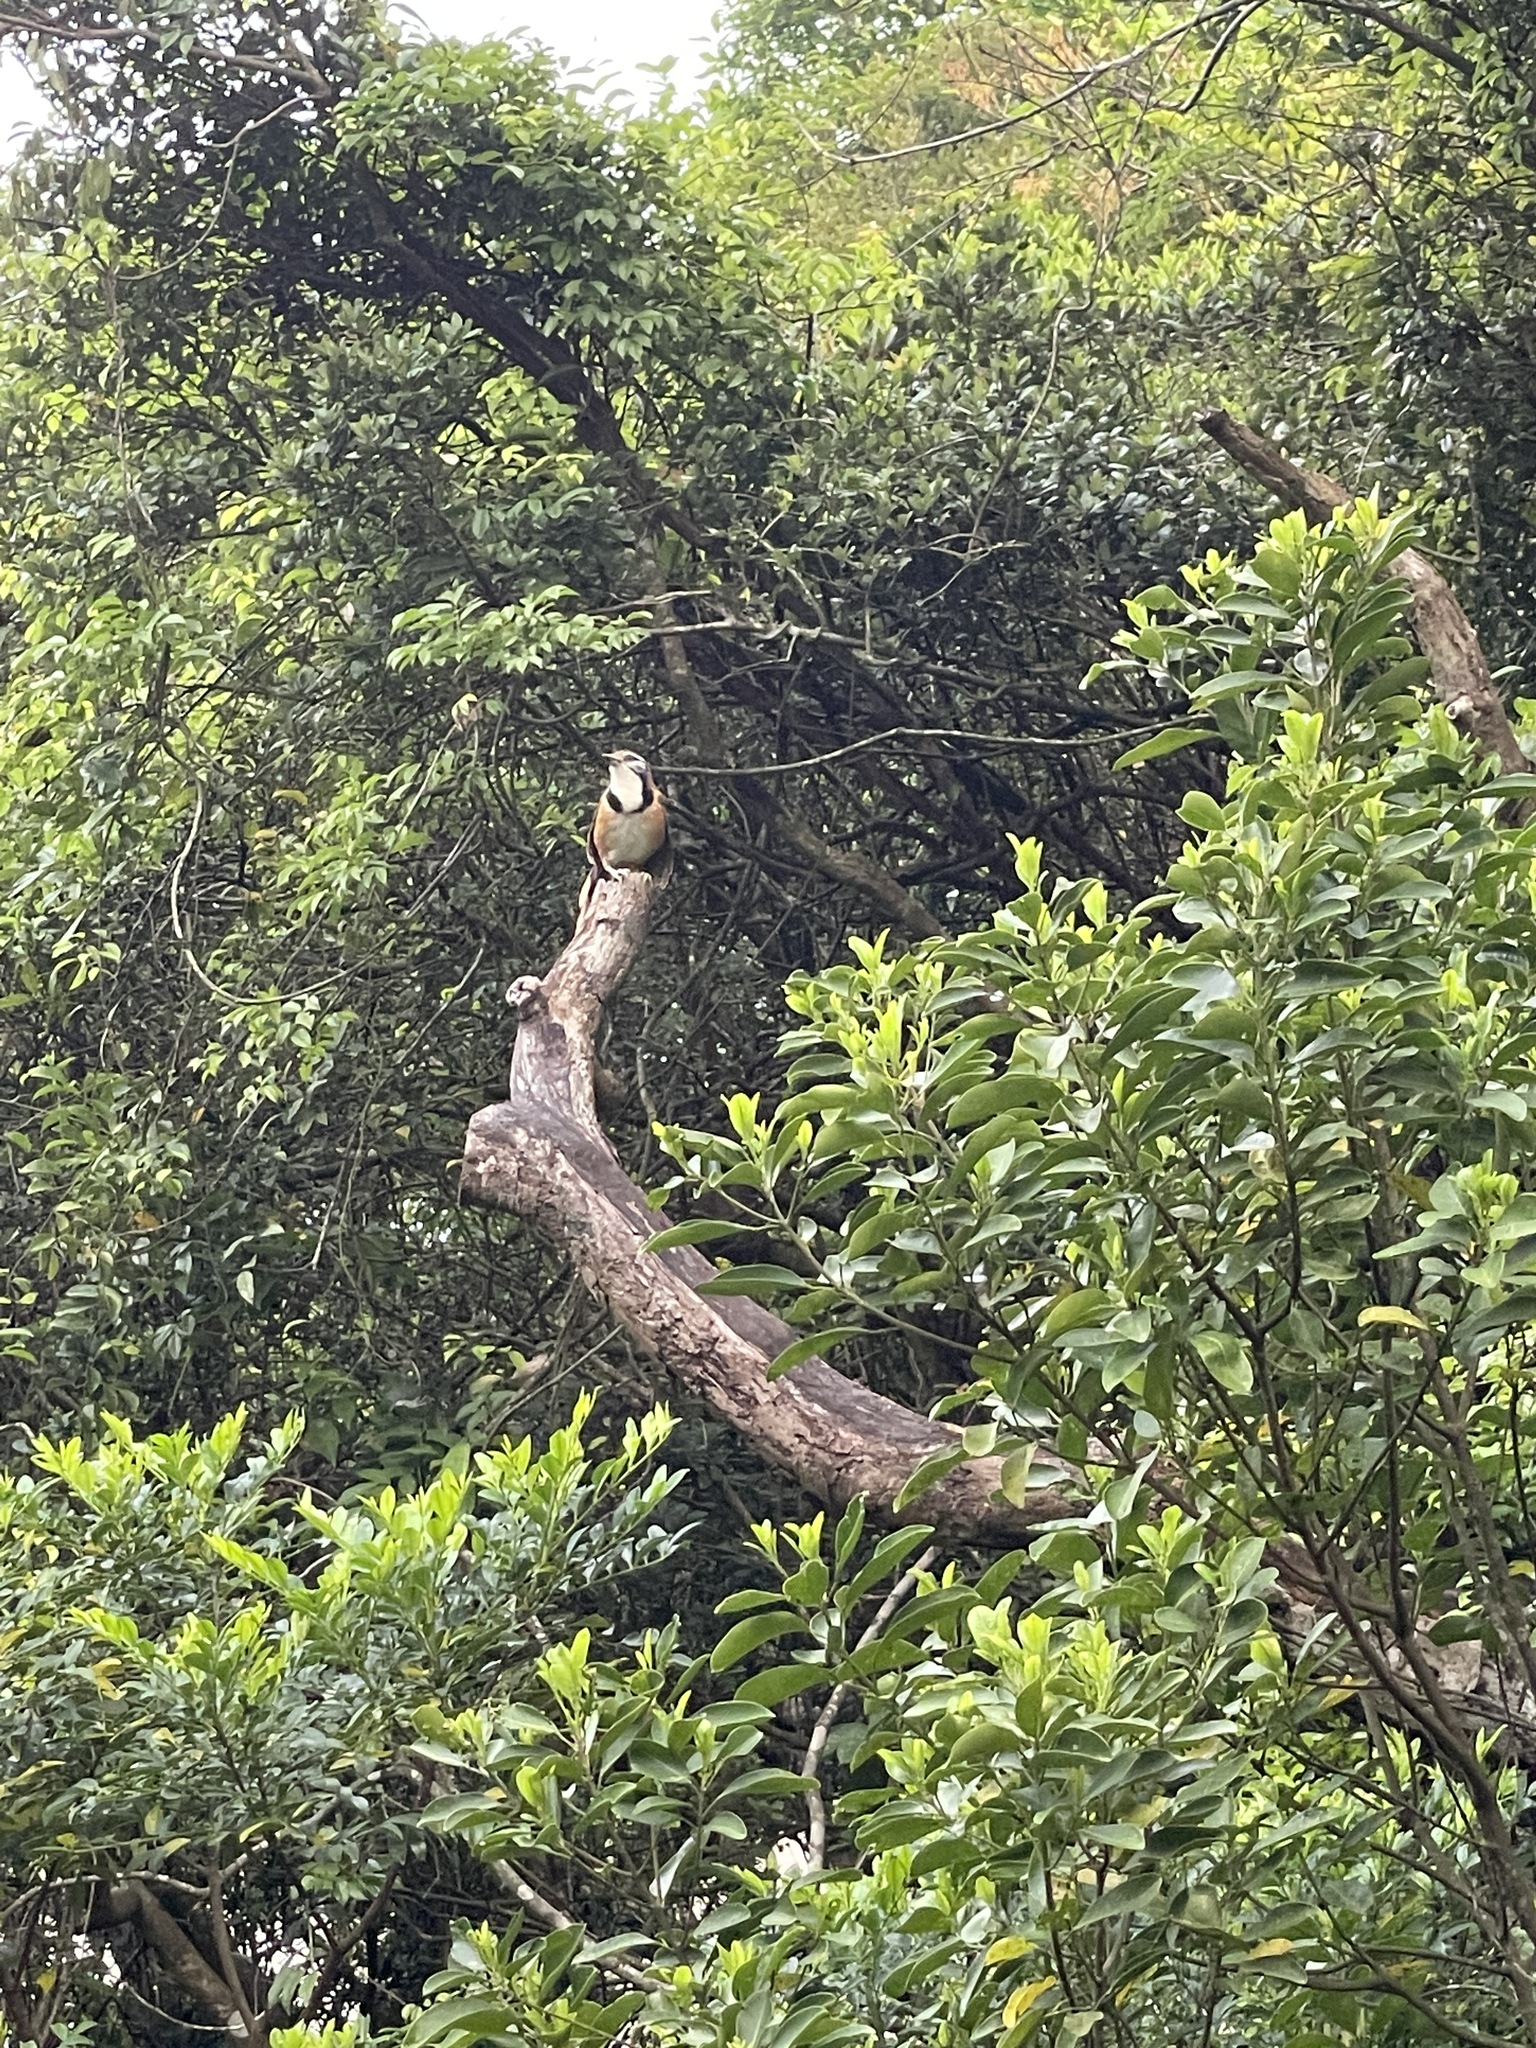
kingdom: Animalia
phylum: Chordata
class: Aves
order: Passeriformes
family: Leiothrichidae
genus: Garrulax
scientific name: Garrulax pectoralis
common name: Greater necklaced laughingthrush
